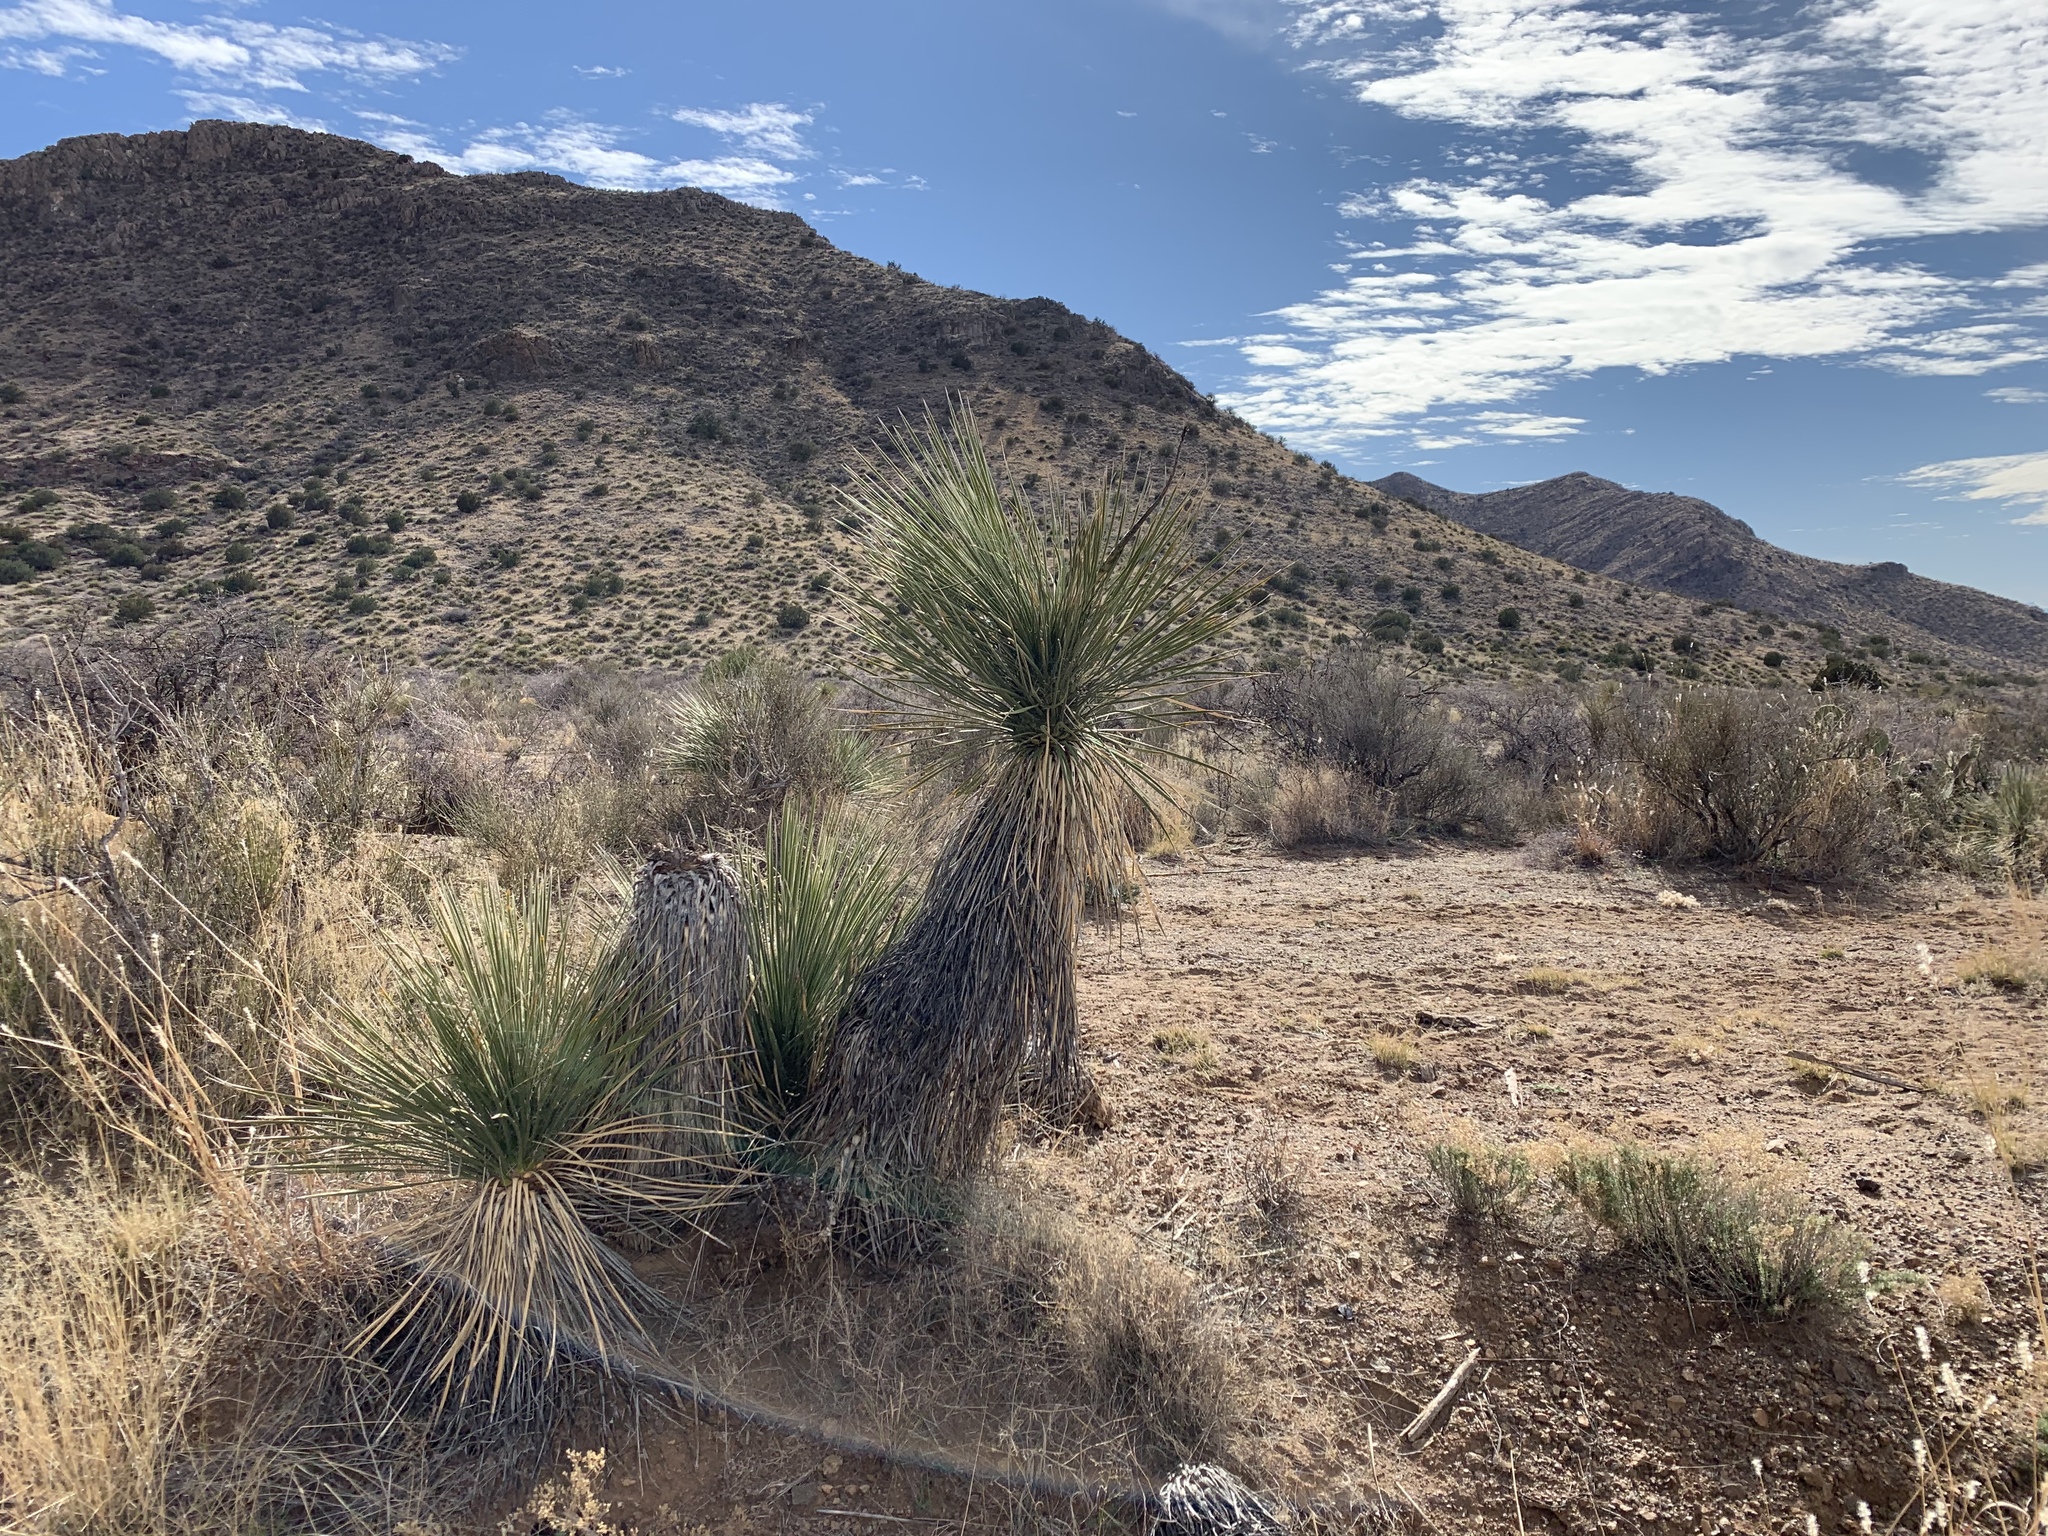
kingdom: Plantae
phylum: Tracheophyta
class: Liliopsida
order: Asparagales
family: Asparagaceae
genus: Yucca
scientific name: Yucca elata
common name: Palmella
